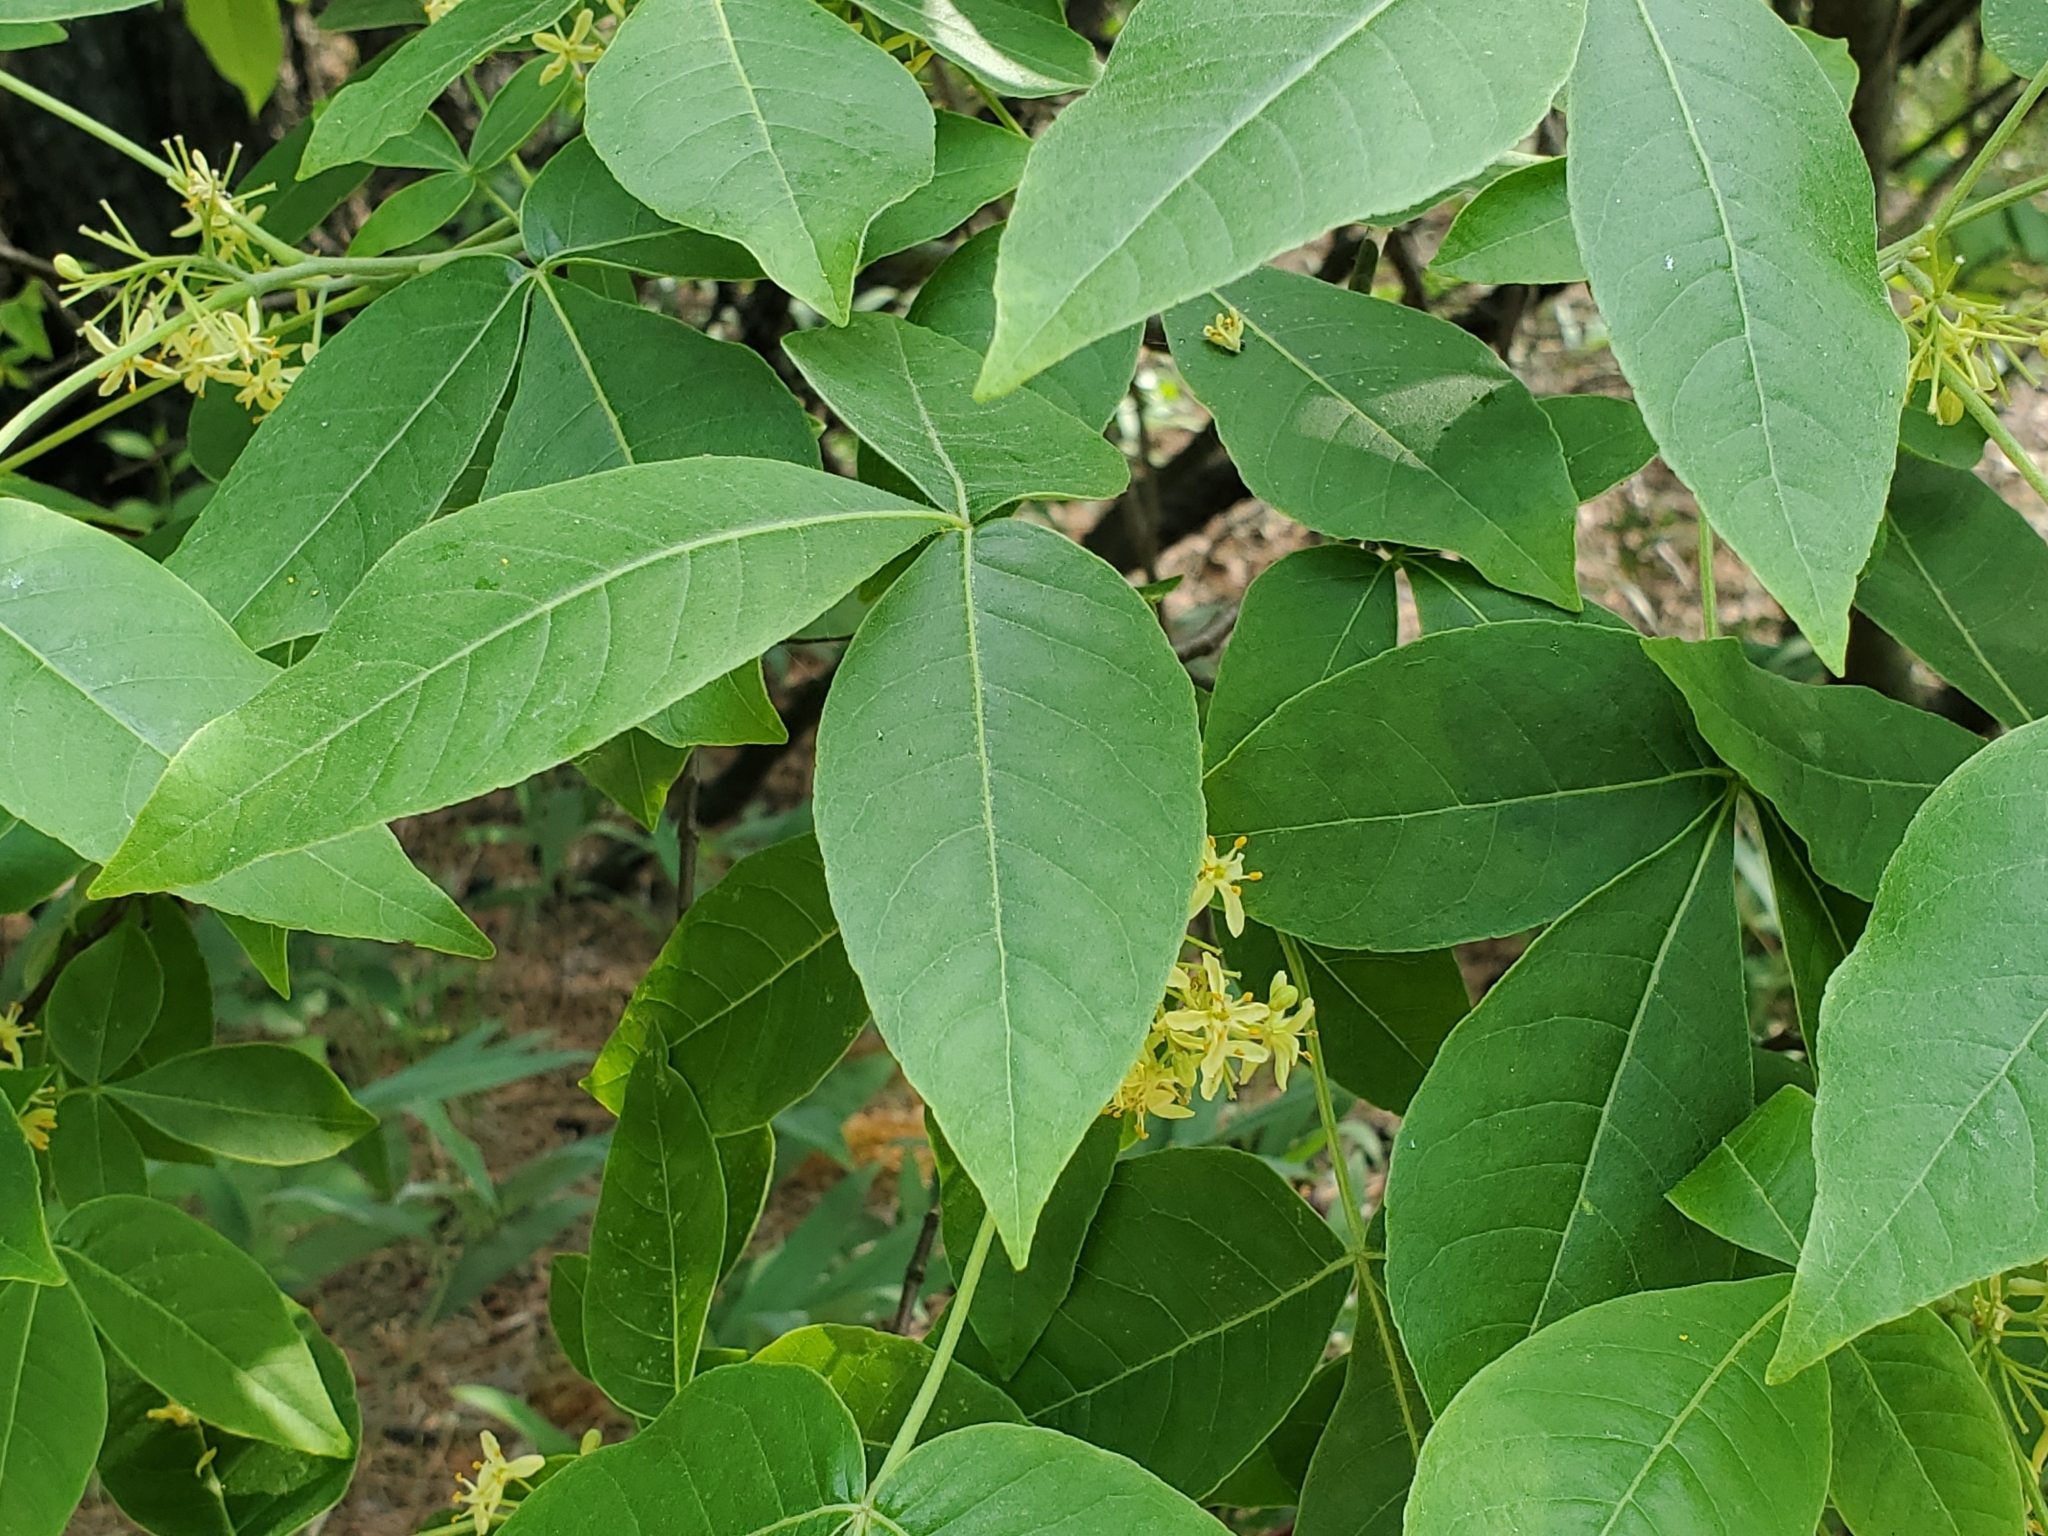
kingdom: Plantae
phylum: Tracheophyta
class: Magnoliopsida
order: Sapindales
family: Rutaceae
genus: Ptelea
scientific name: Ptelea trifoliata
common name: Common hop-tree
